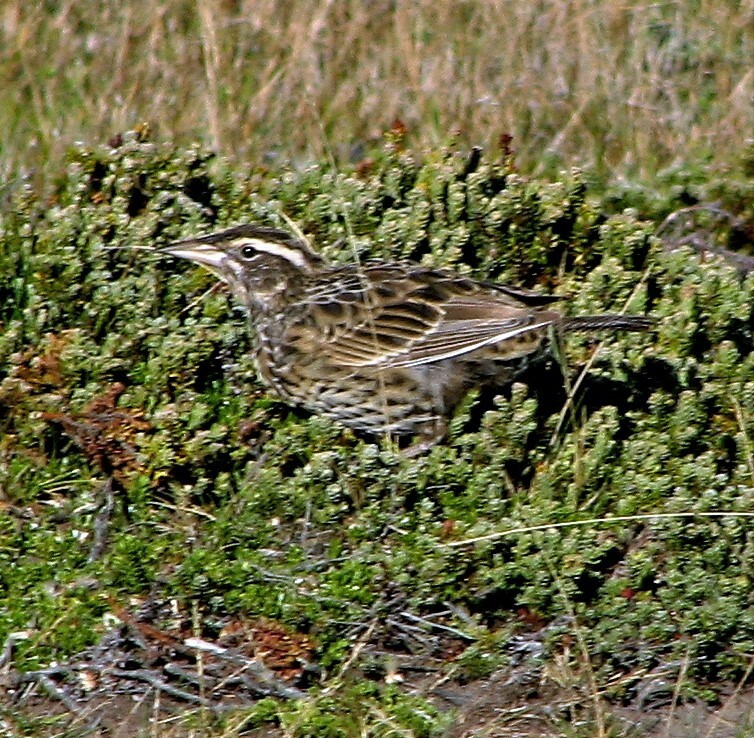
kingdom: Animalia
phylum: Chordata
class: Aves
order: Passeriformes
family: Icteridae
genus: Sturnella
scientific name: Sturnella loyca
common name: Long-tailed meadowlark
